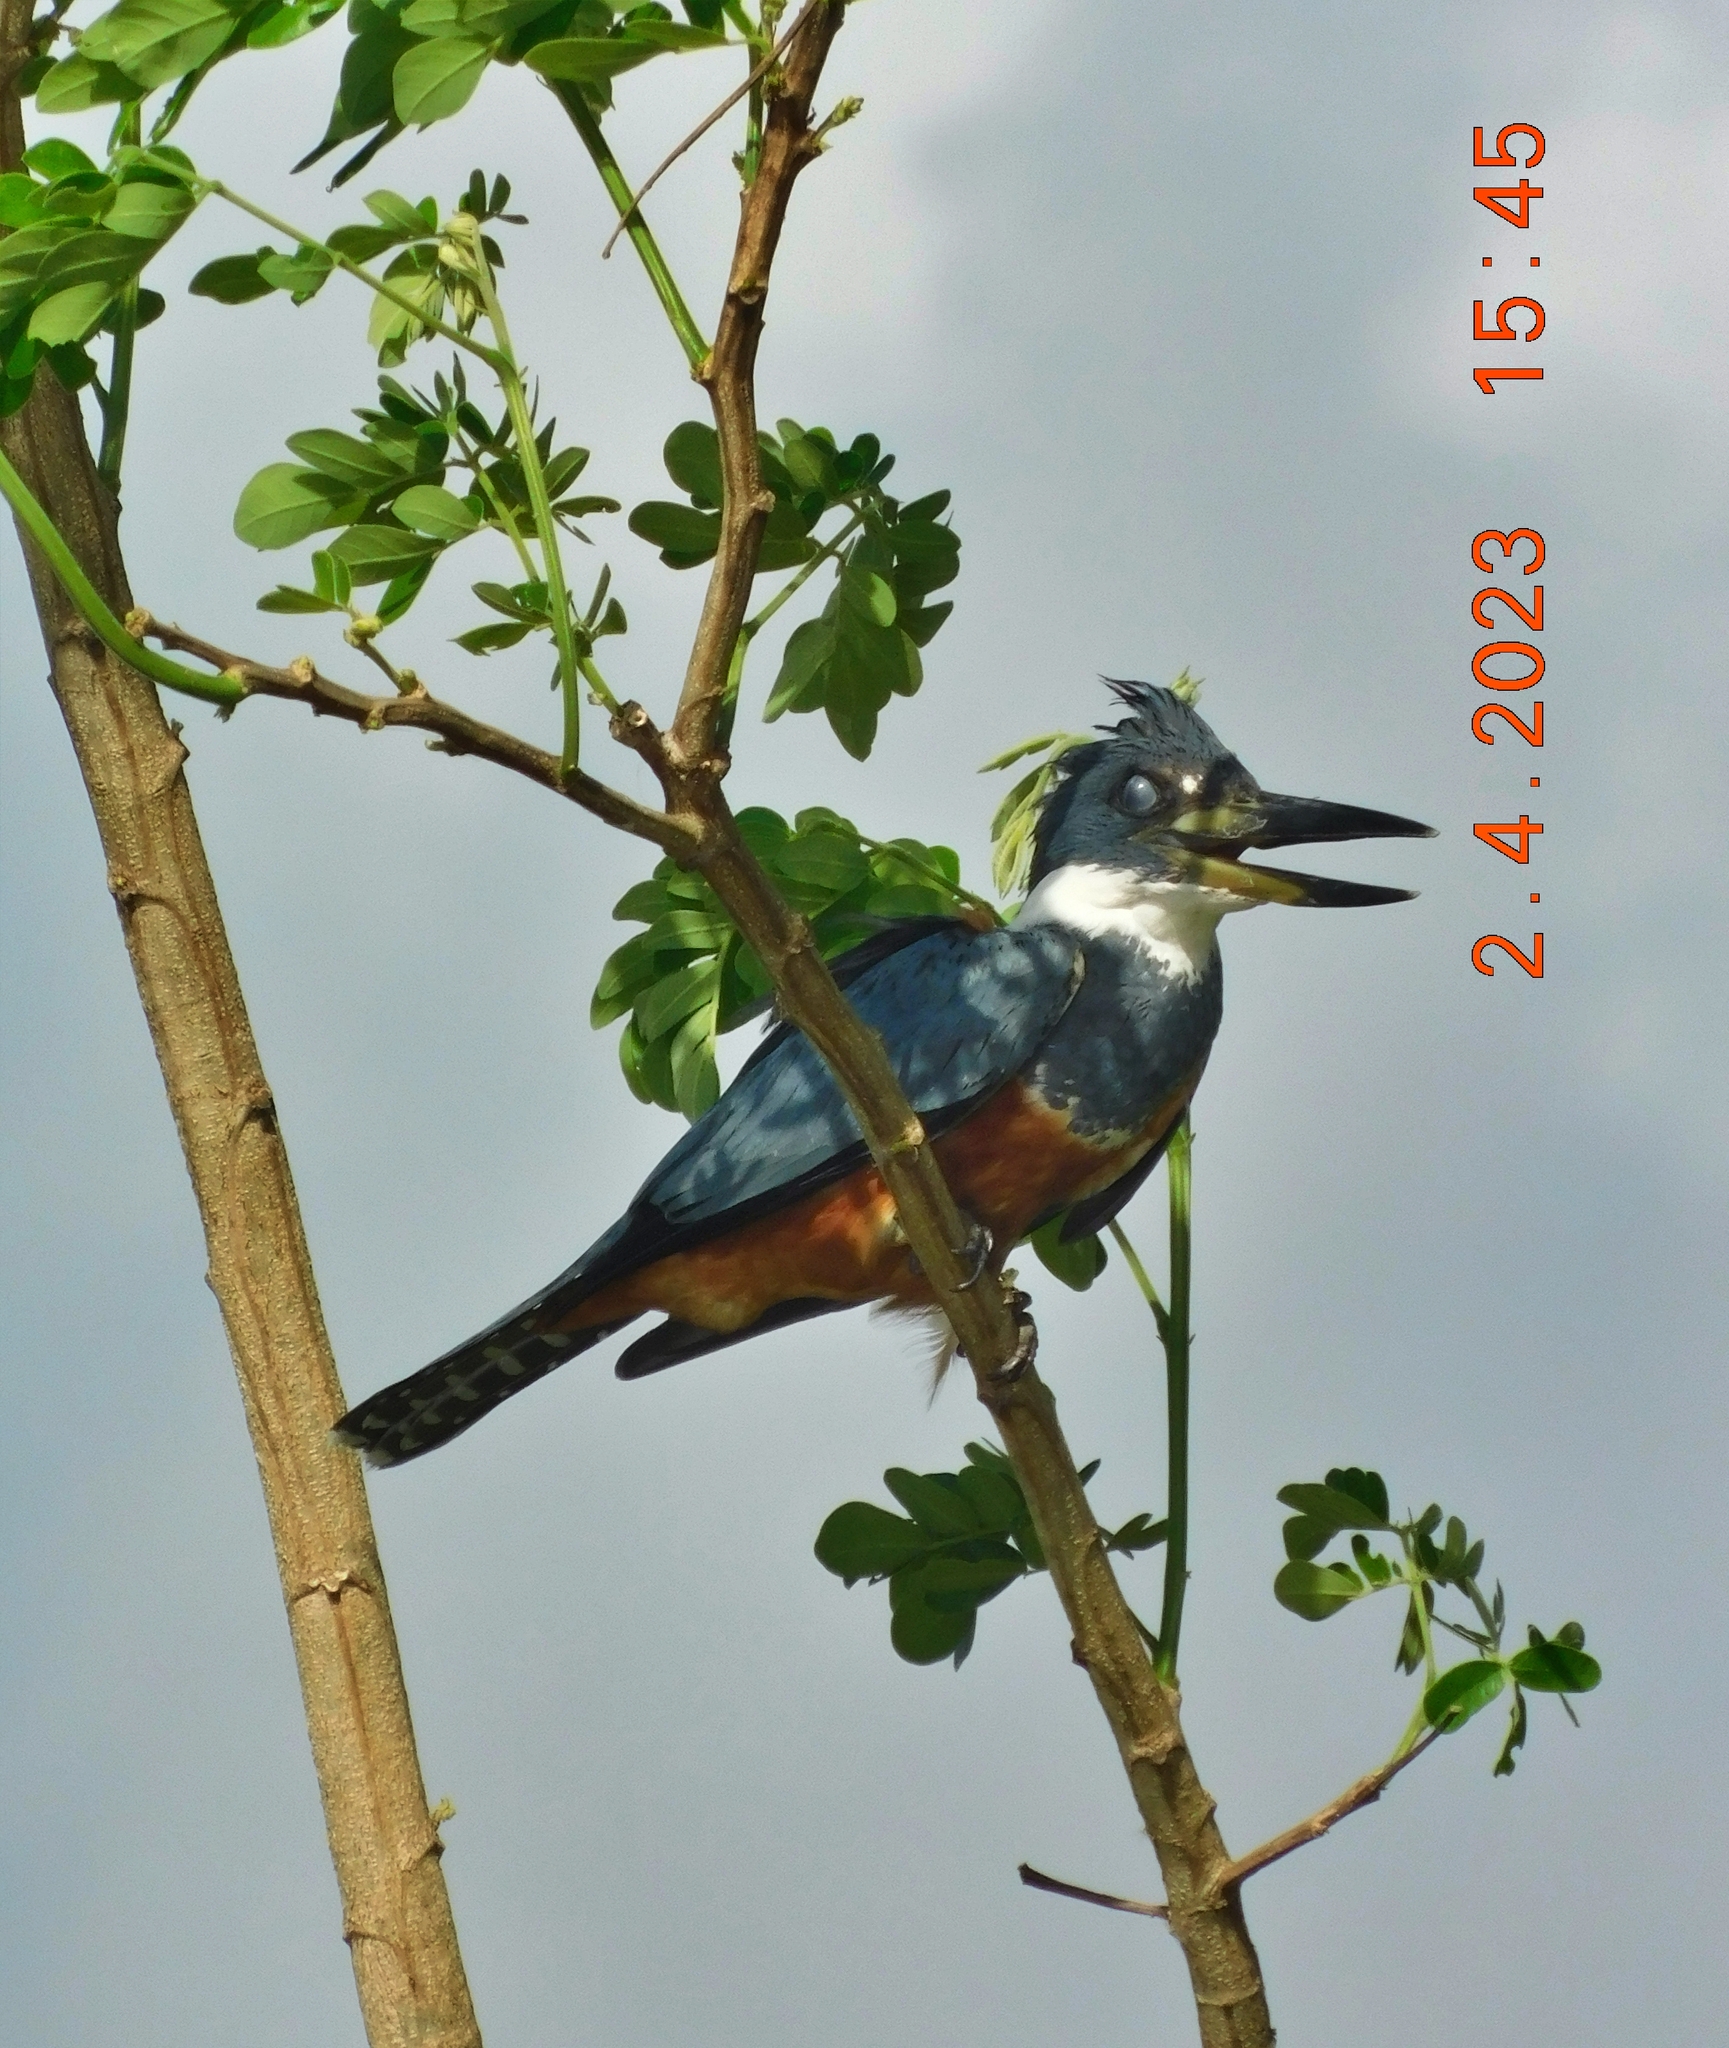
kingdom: Animalia
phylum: Chordata
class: Aves
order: Coraciiformes
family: Alcedinidae
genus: Megaceryle
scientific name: Megaceryle torquata
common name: Ringed kingfisher
